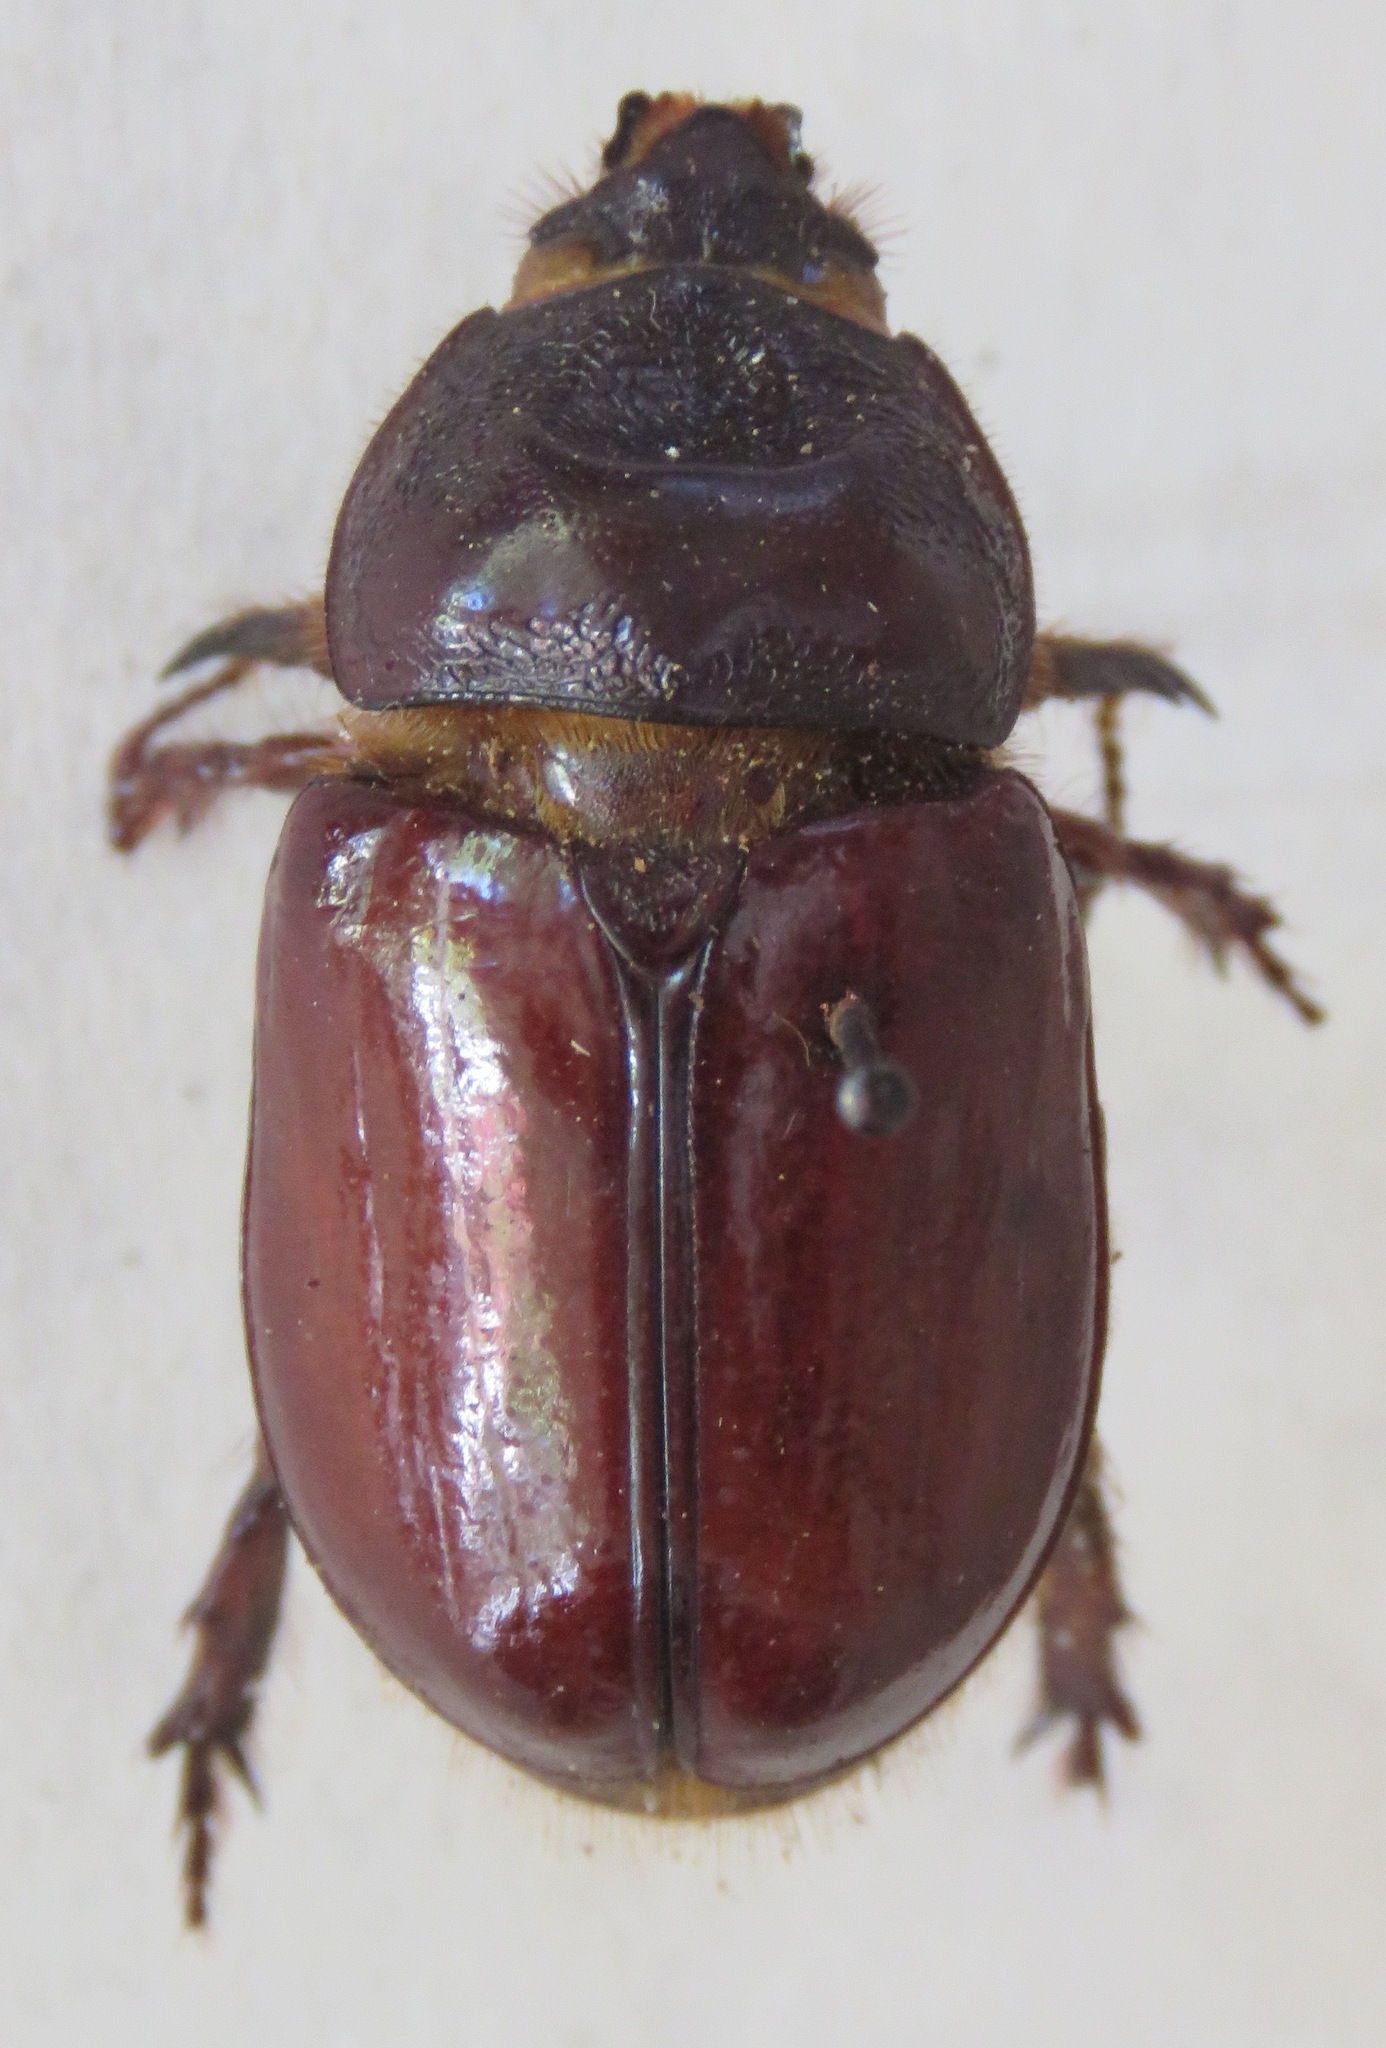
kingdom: Animalia
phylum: Arthropoda
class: Insecta
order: Coleoptera
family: Scarabaeidae
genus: Strategus
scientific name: Strategus aloeus
